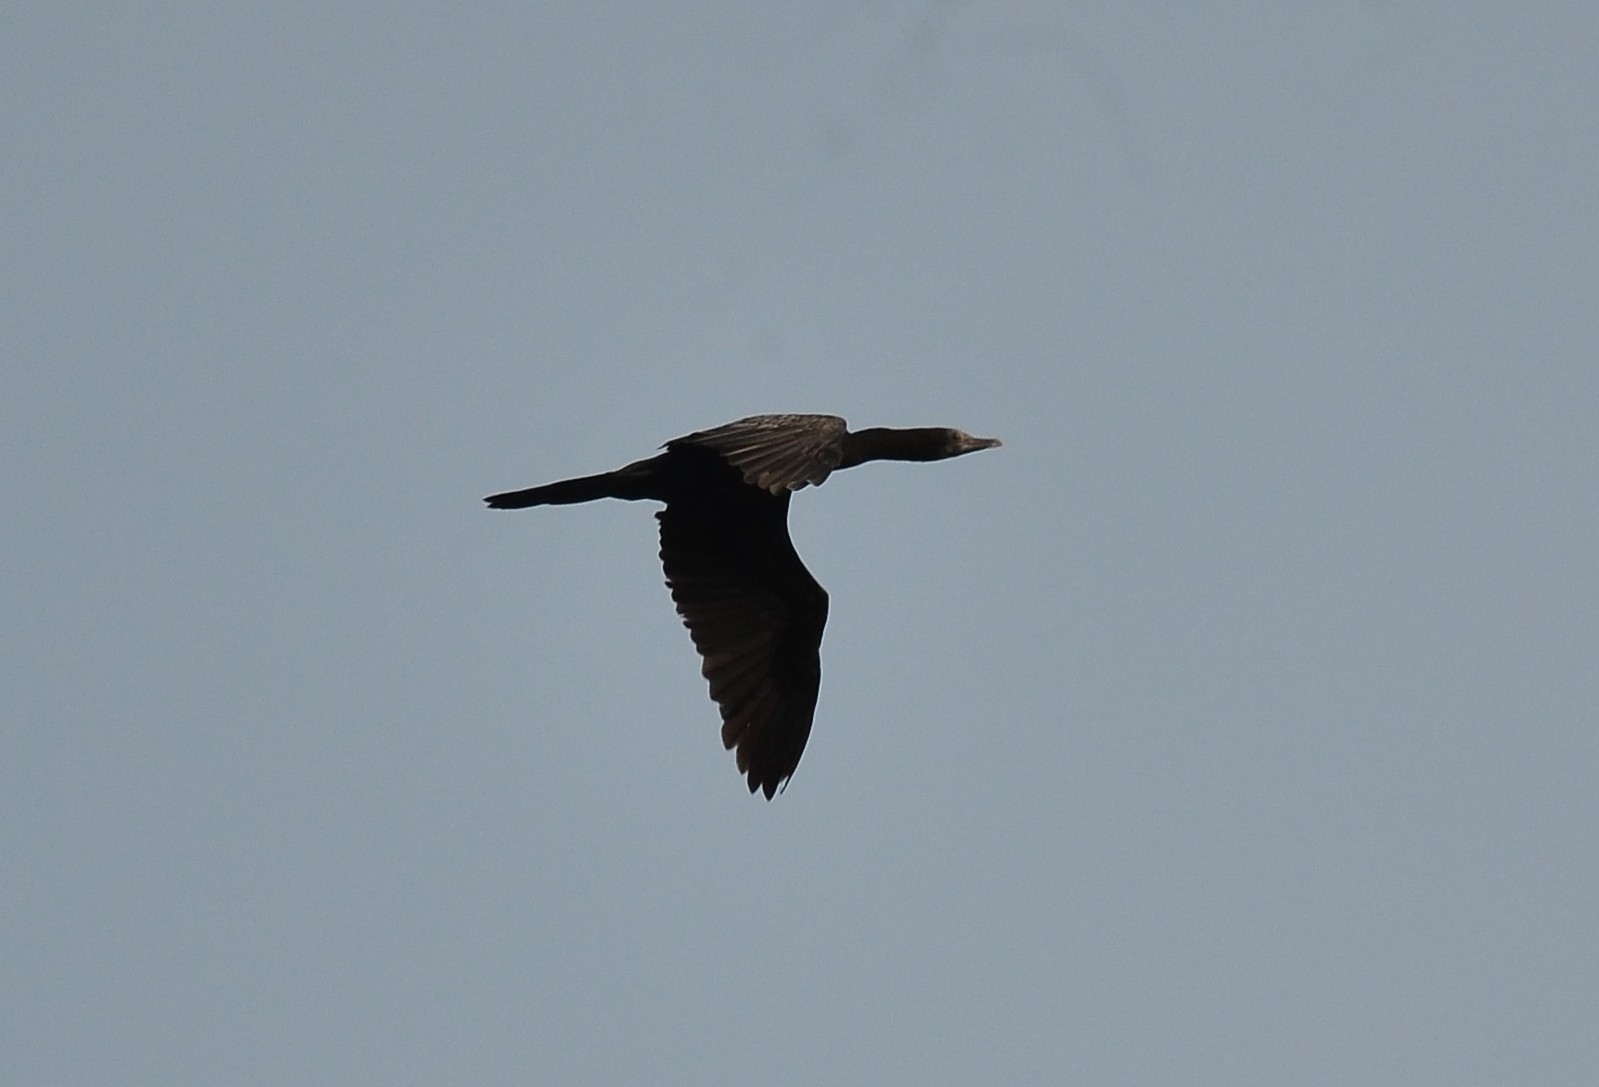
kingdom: Animalia
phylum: Chordata
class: Aves
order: Suliformes
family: Phalacrocoracidae
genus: Microcarbo
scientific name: Microcarbo niger
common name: Little cormorant
